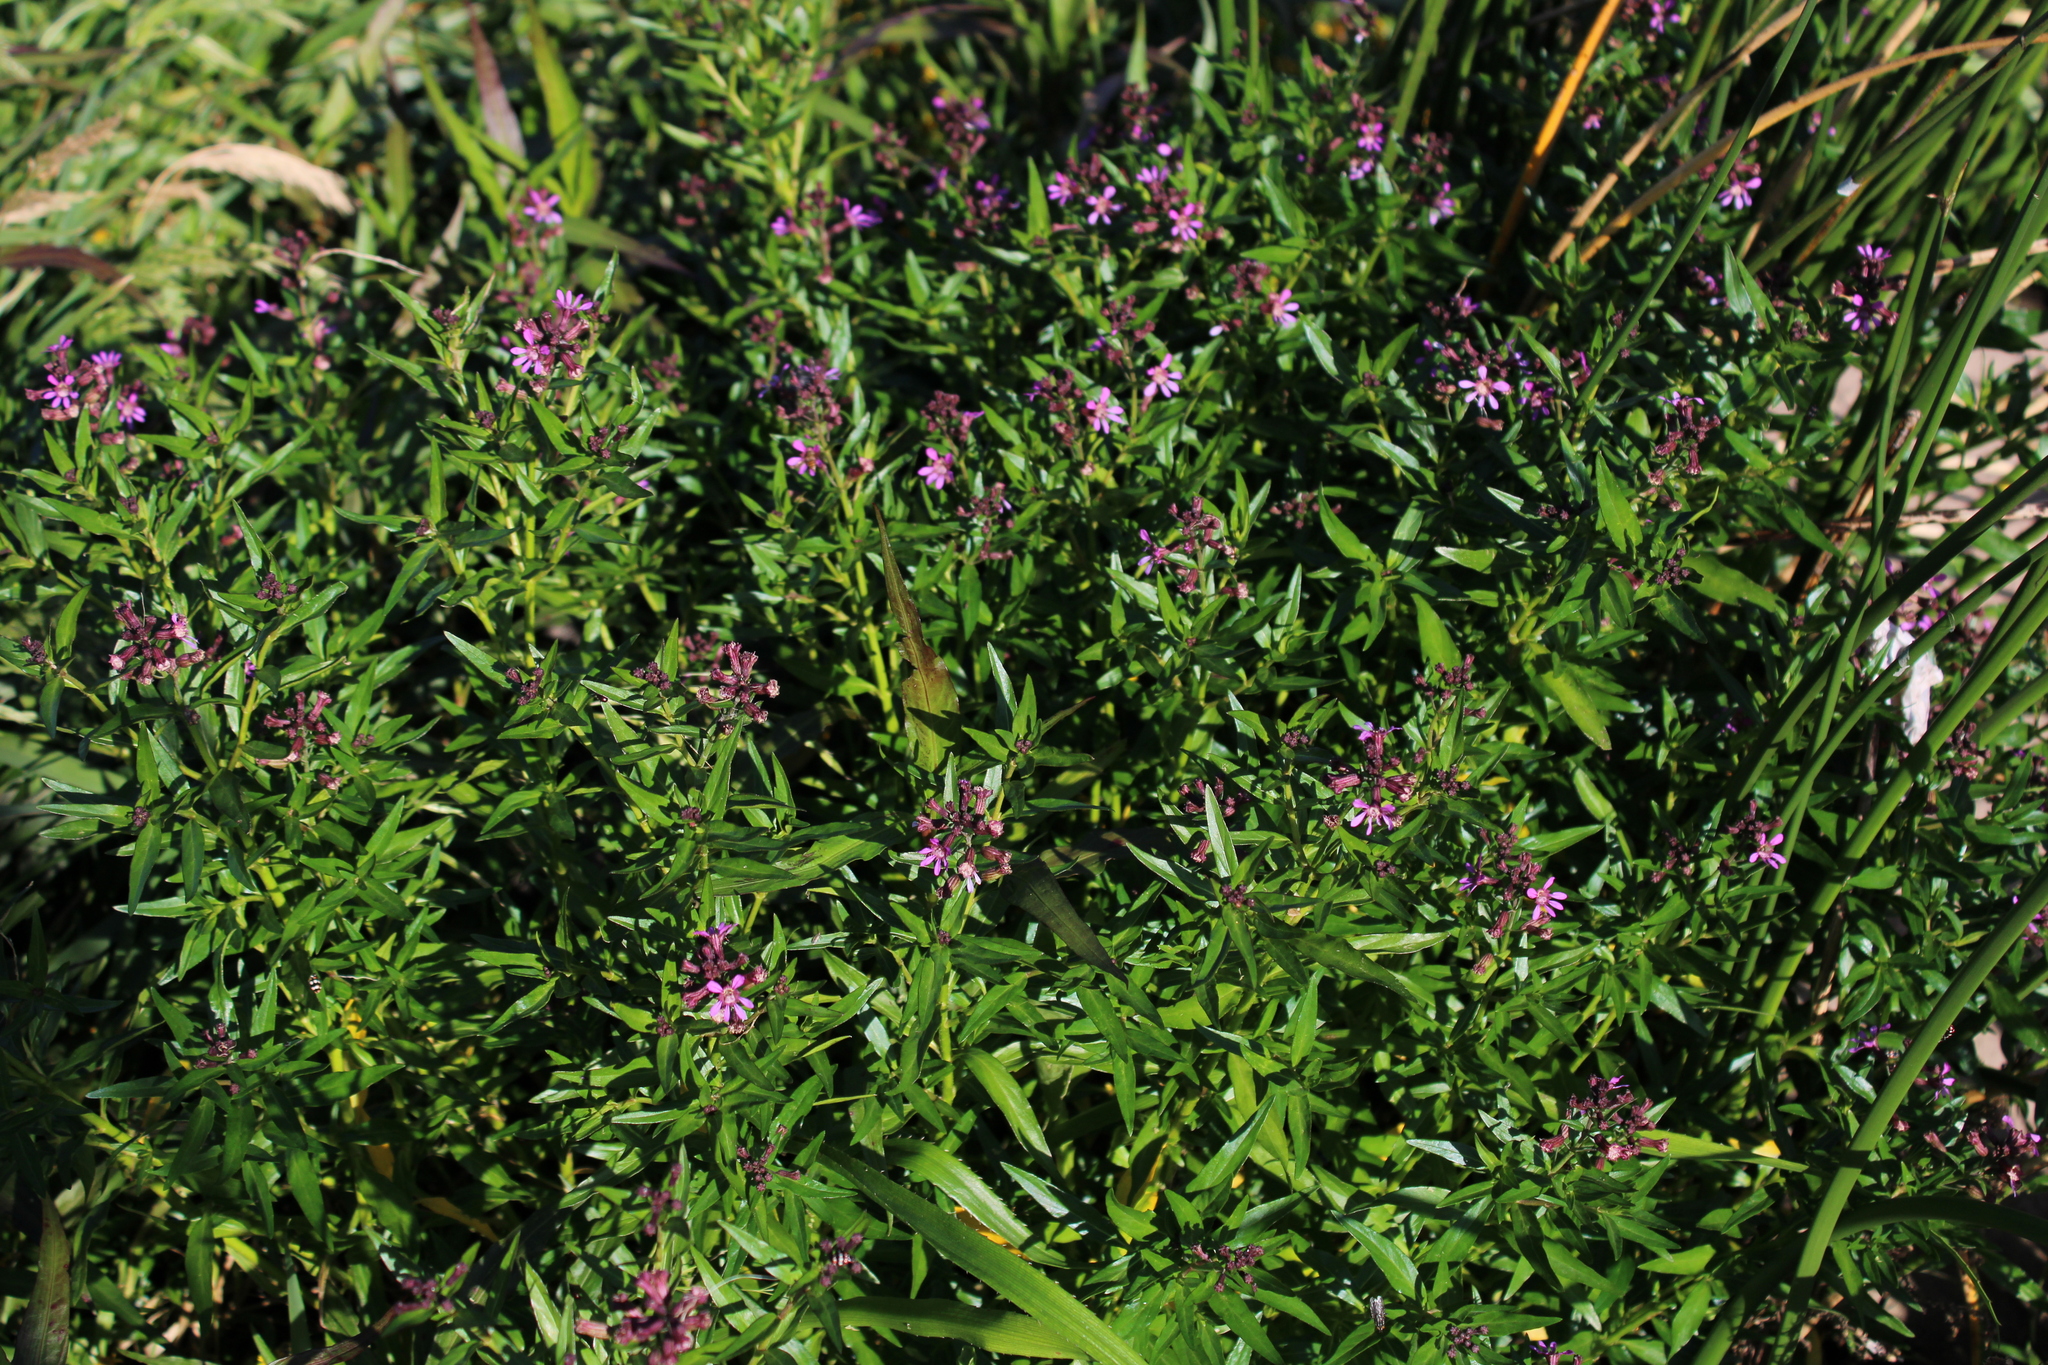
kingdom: Plantae
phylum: Tracheophyta
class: Magnoliopsida
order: Myrtales
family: Lythraceae
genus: Cuphea
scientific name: Cuphea fruticosa
